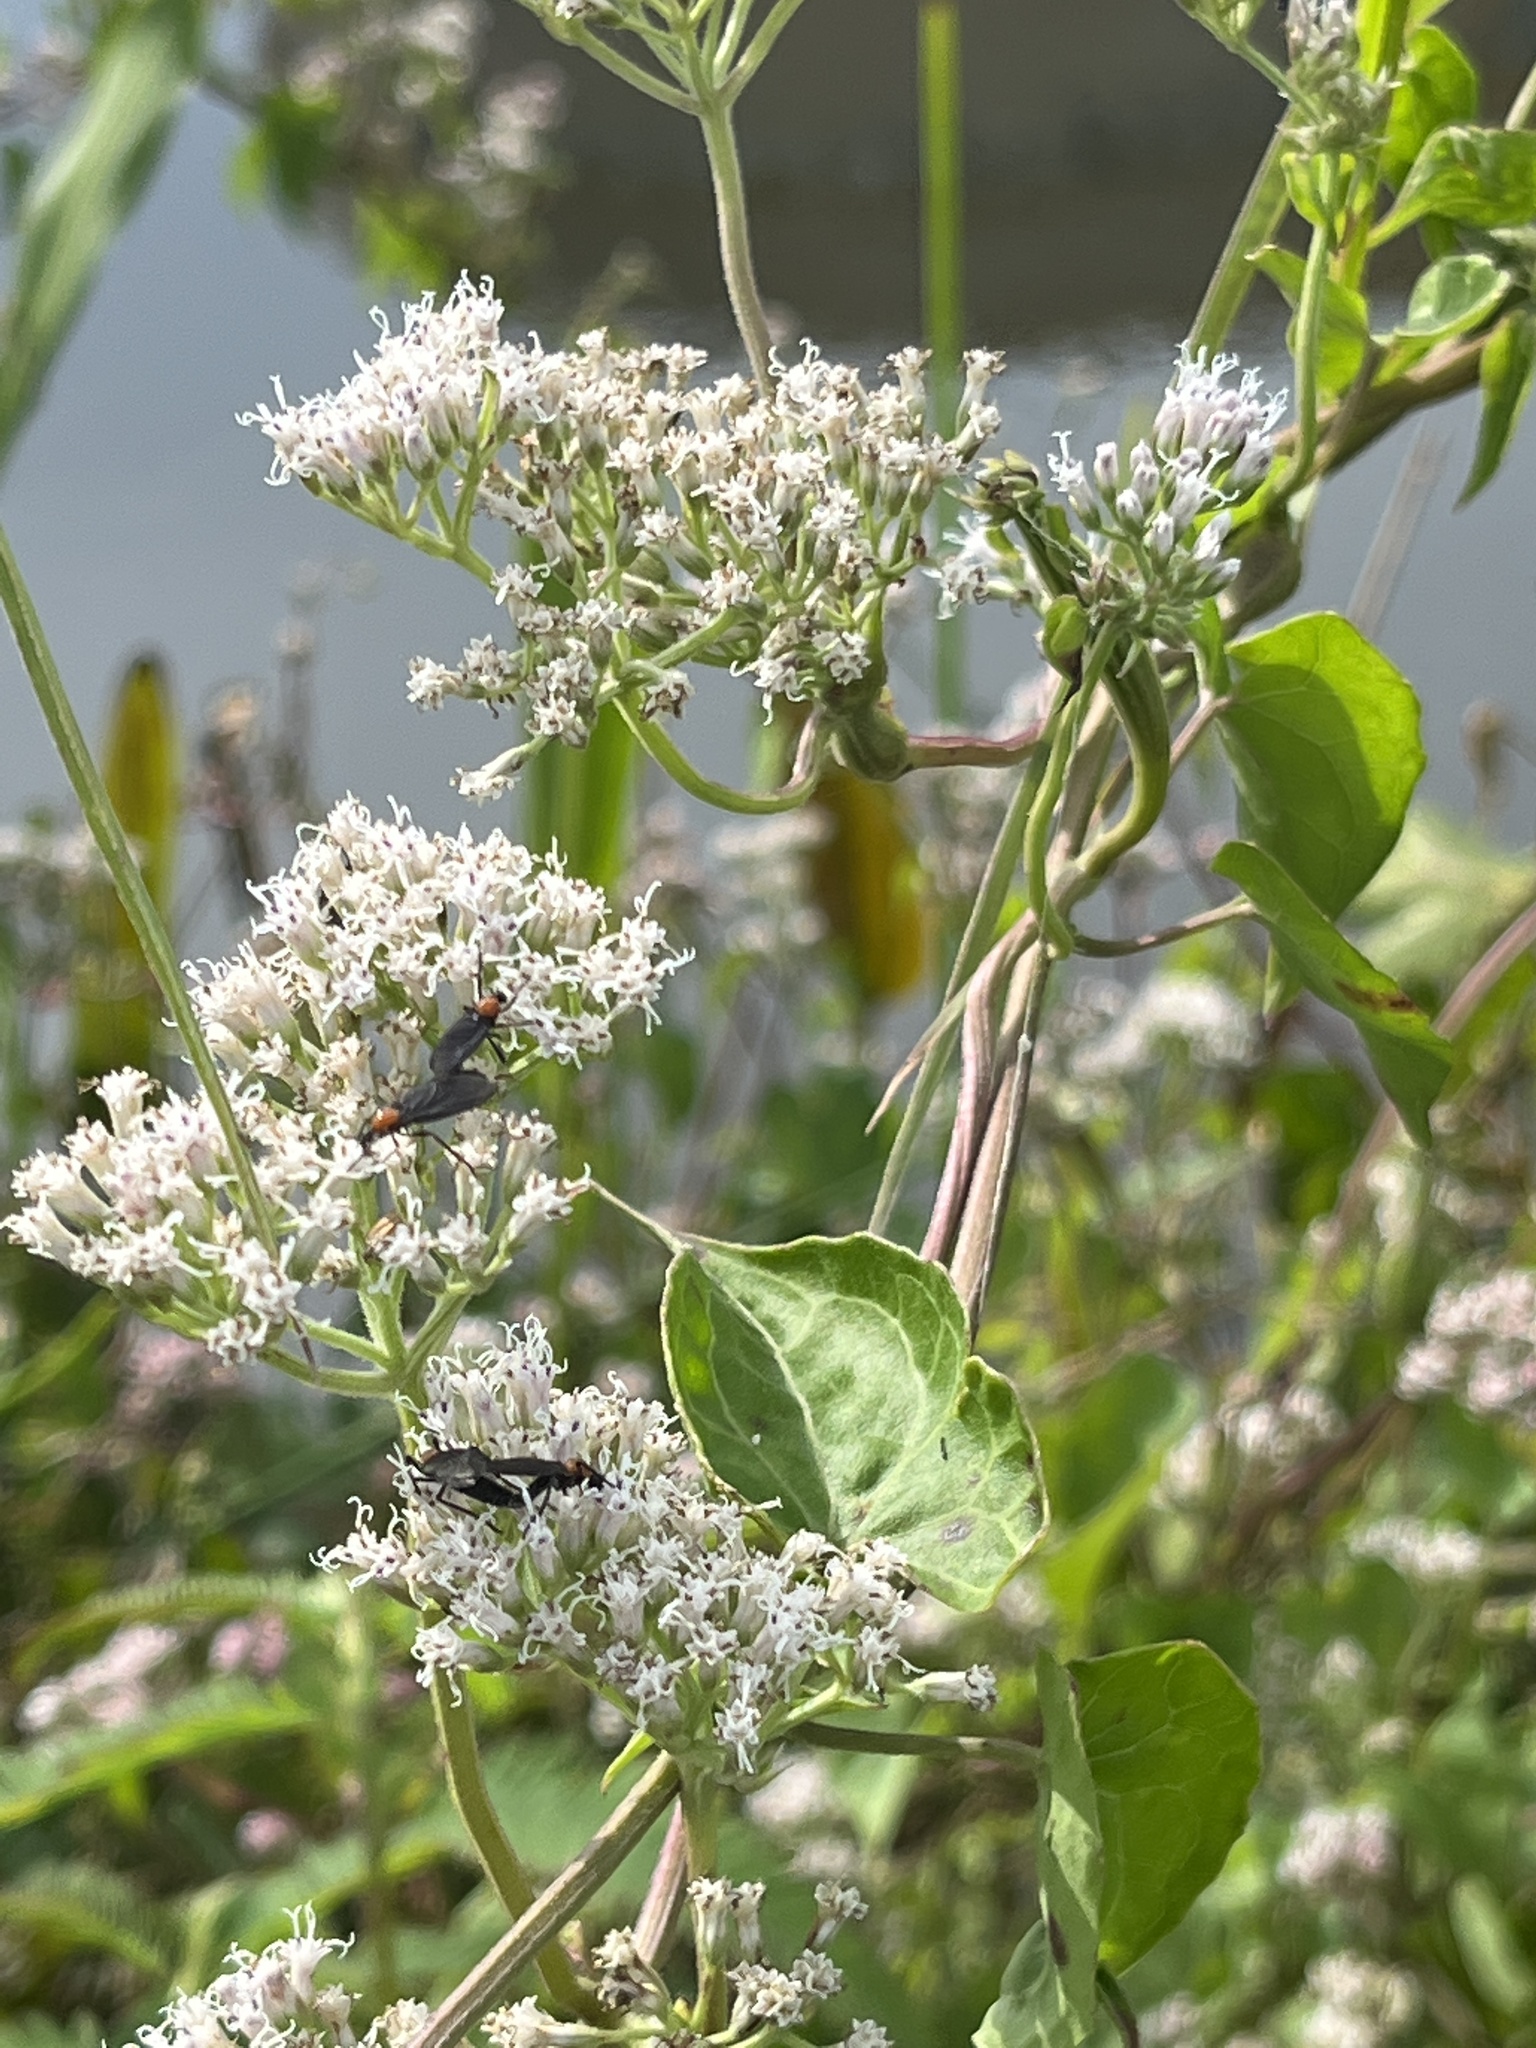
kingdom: Animalia
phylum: Arthropoda
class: Insecta
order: Diptera
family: Bibionidae
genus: Plecia
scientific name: Plecia nearctica
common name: March fly
